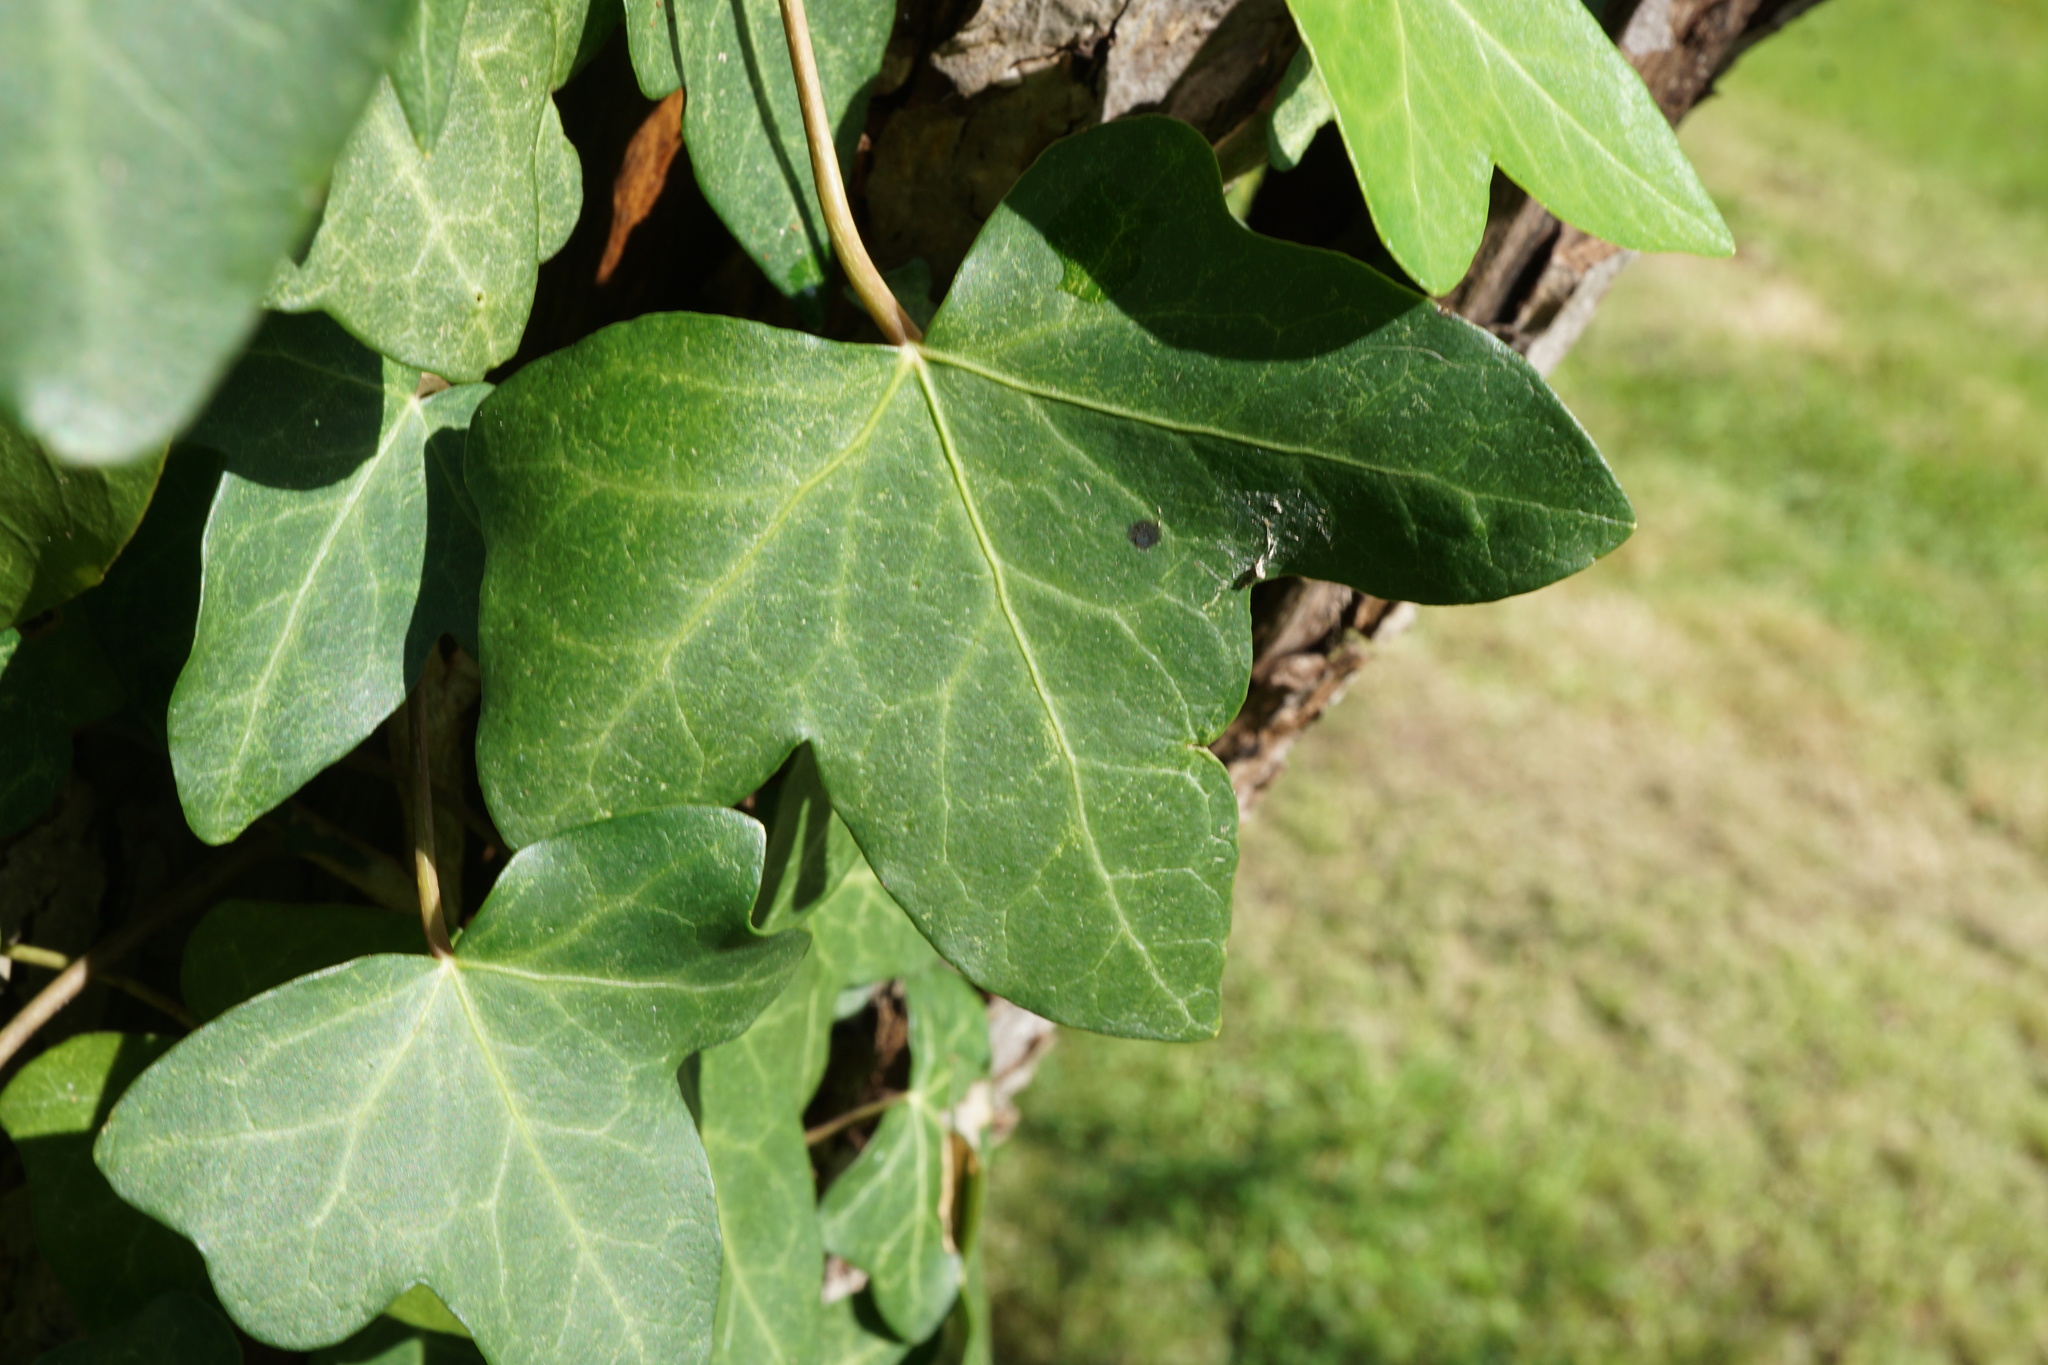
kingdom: Plantae
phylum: Tracheophyta
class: Magnoliopsida
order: Apiales
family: Araliaceae
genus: Hedera
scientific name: Hedera helix
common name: Ivy
